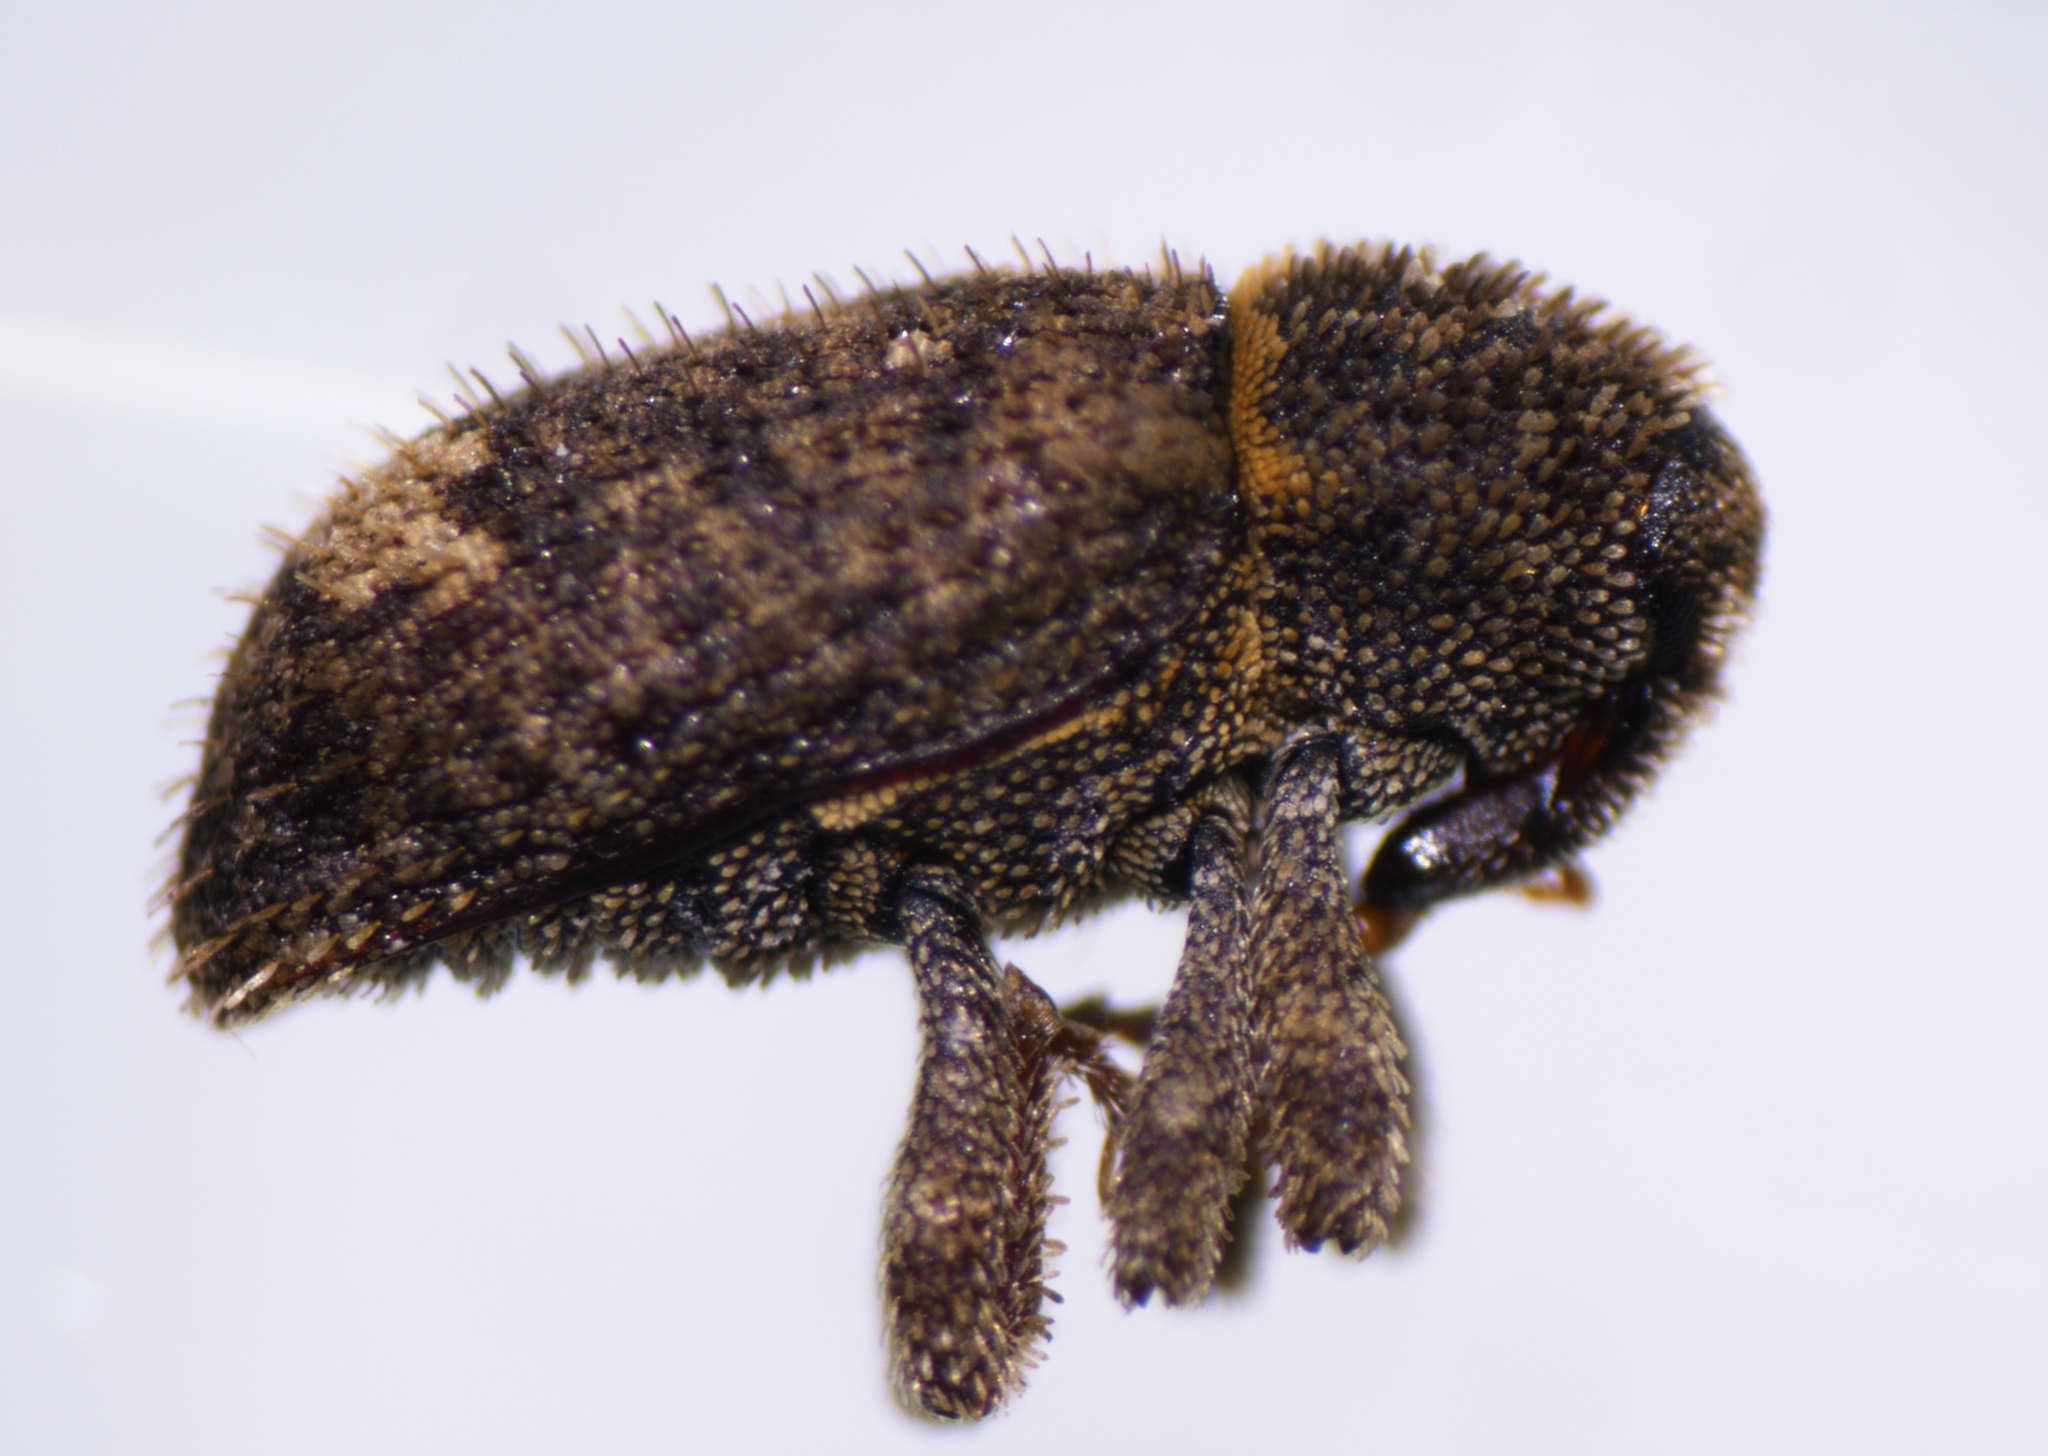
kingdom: Animalia
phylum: Arthropoda
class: Insecta
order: Coleoptera
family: Curculionidae
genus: Euscepes
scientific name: Euscepes postfasciatus
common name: West indian sweet potato weevil
